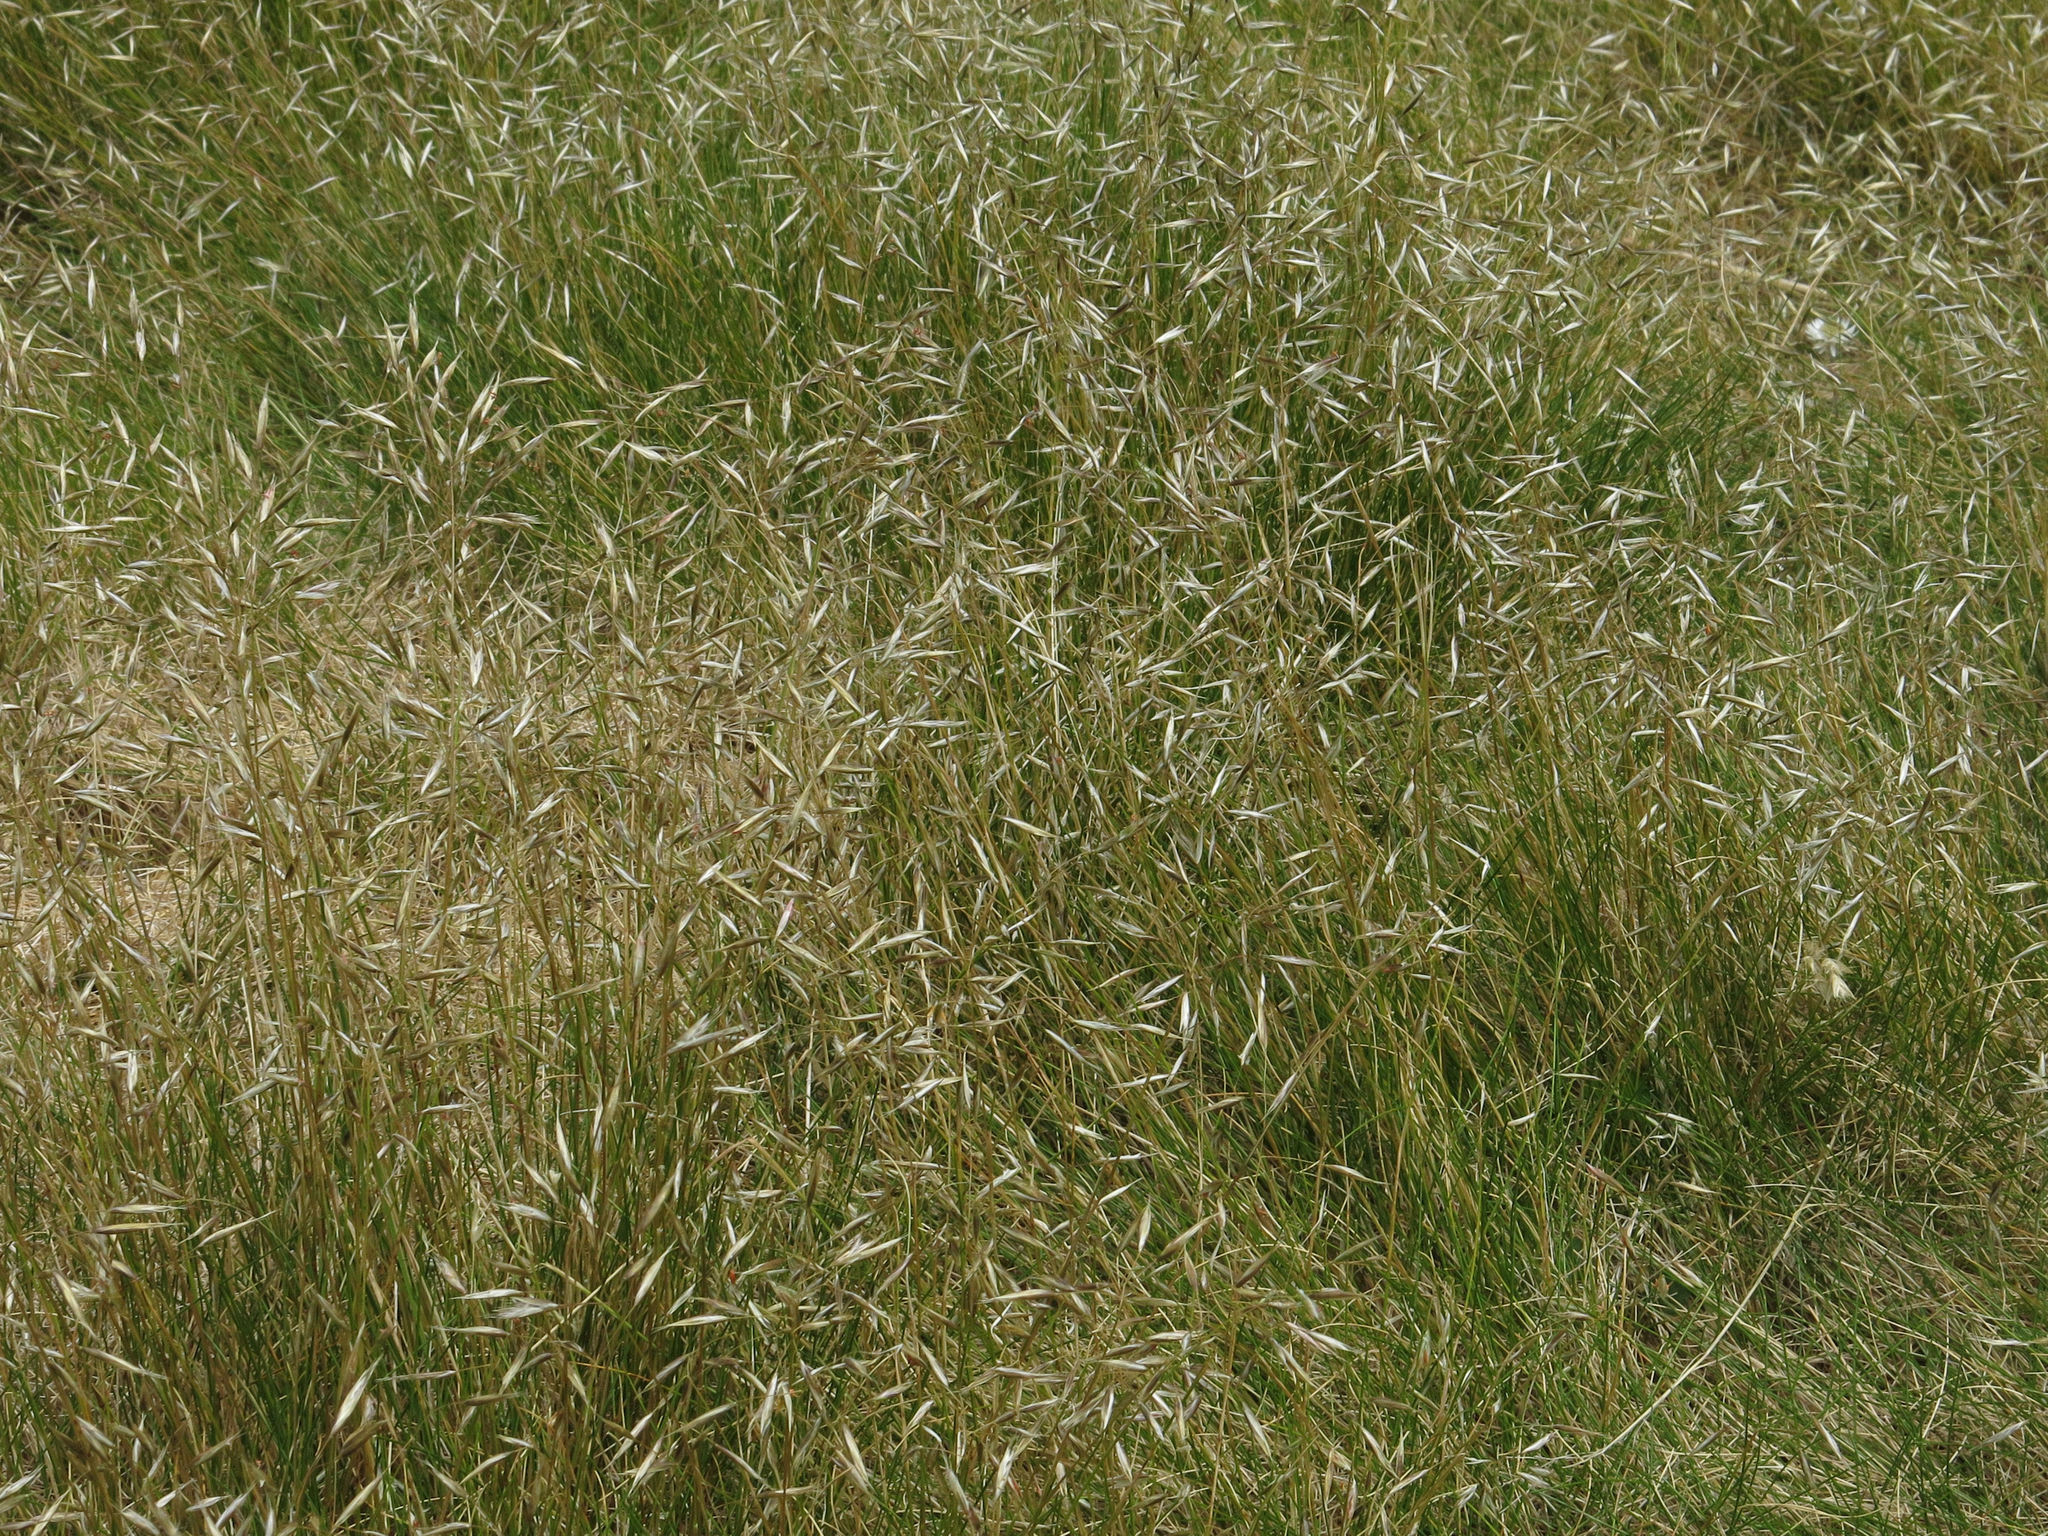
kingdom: Plantae
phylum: Tracheophyta
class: Liliopsida
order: Poales
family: Poaceae
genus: Rytidosperma
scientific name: Rytidosperma setifolium
